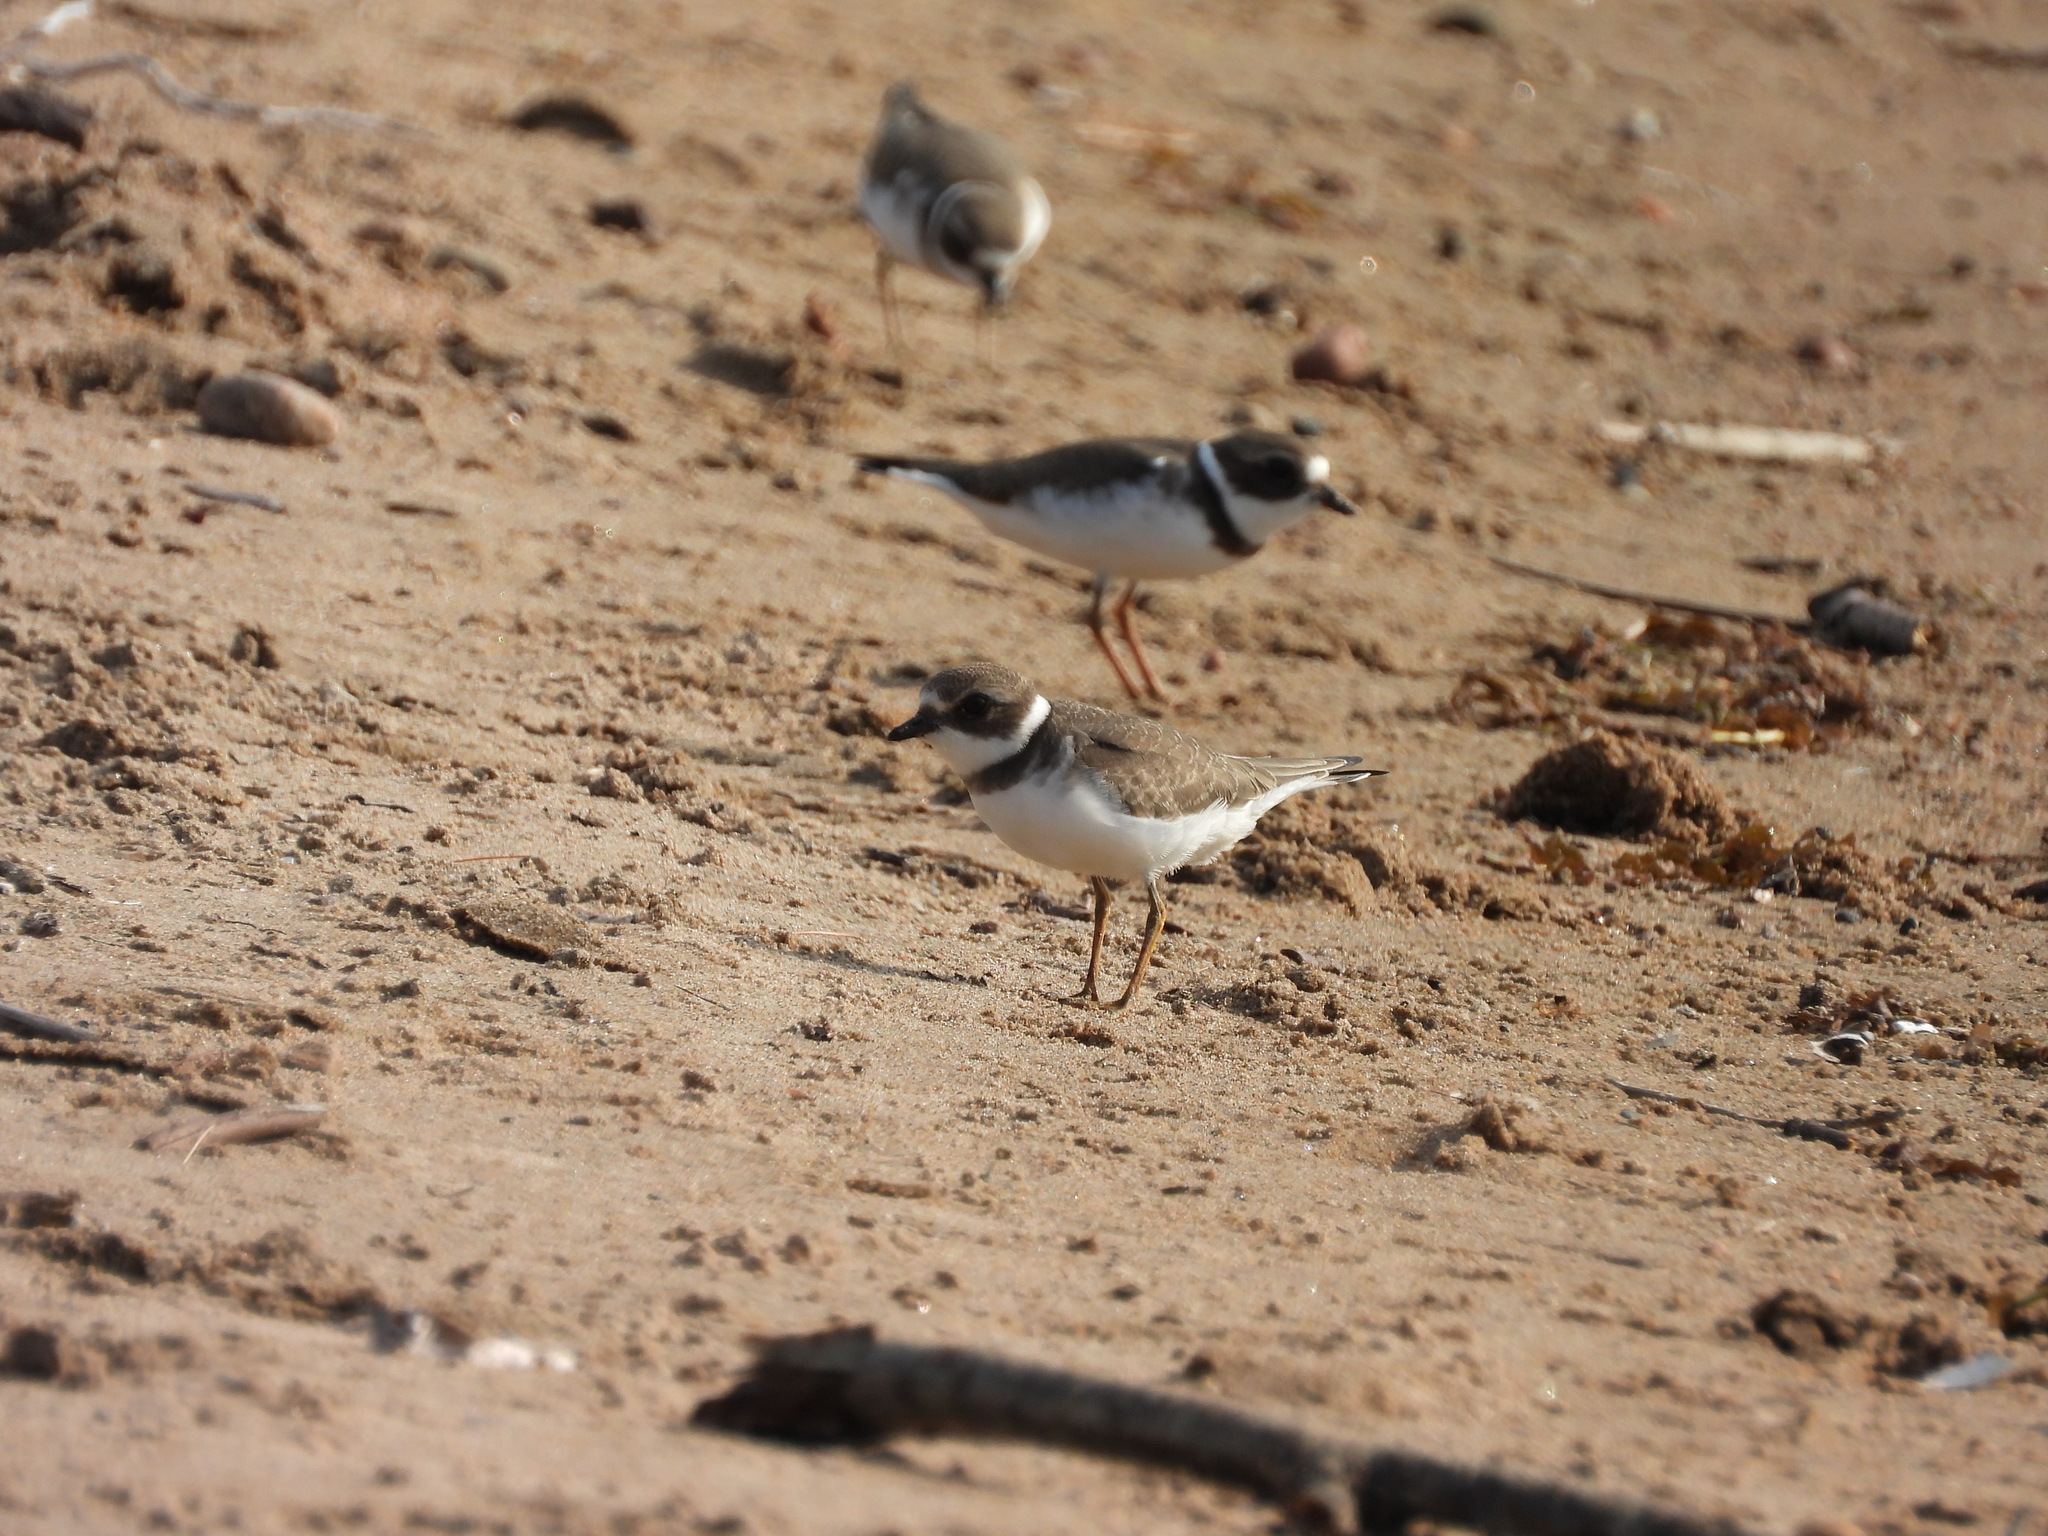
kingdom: Animalia
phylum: Chordata
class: Aves
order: Charadriiformes
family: Charadriidae
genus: Charadrius
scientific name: Charadrius semipalmatus
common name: Semipalmated plover
